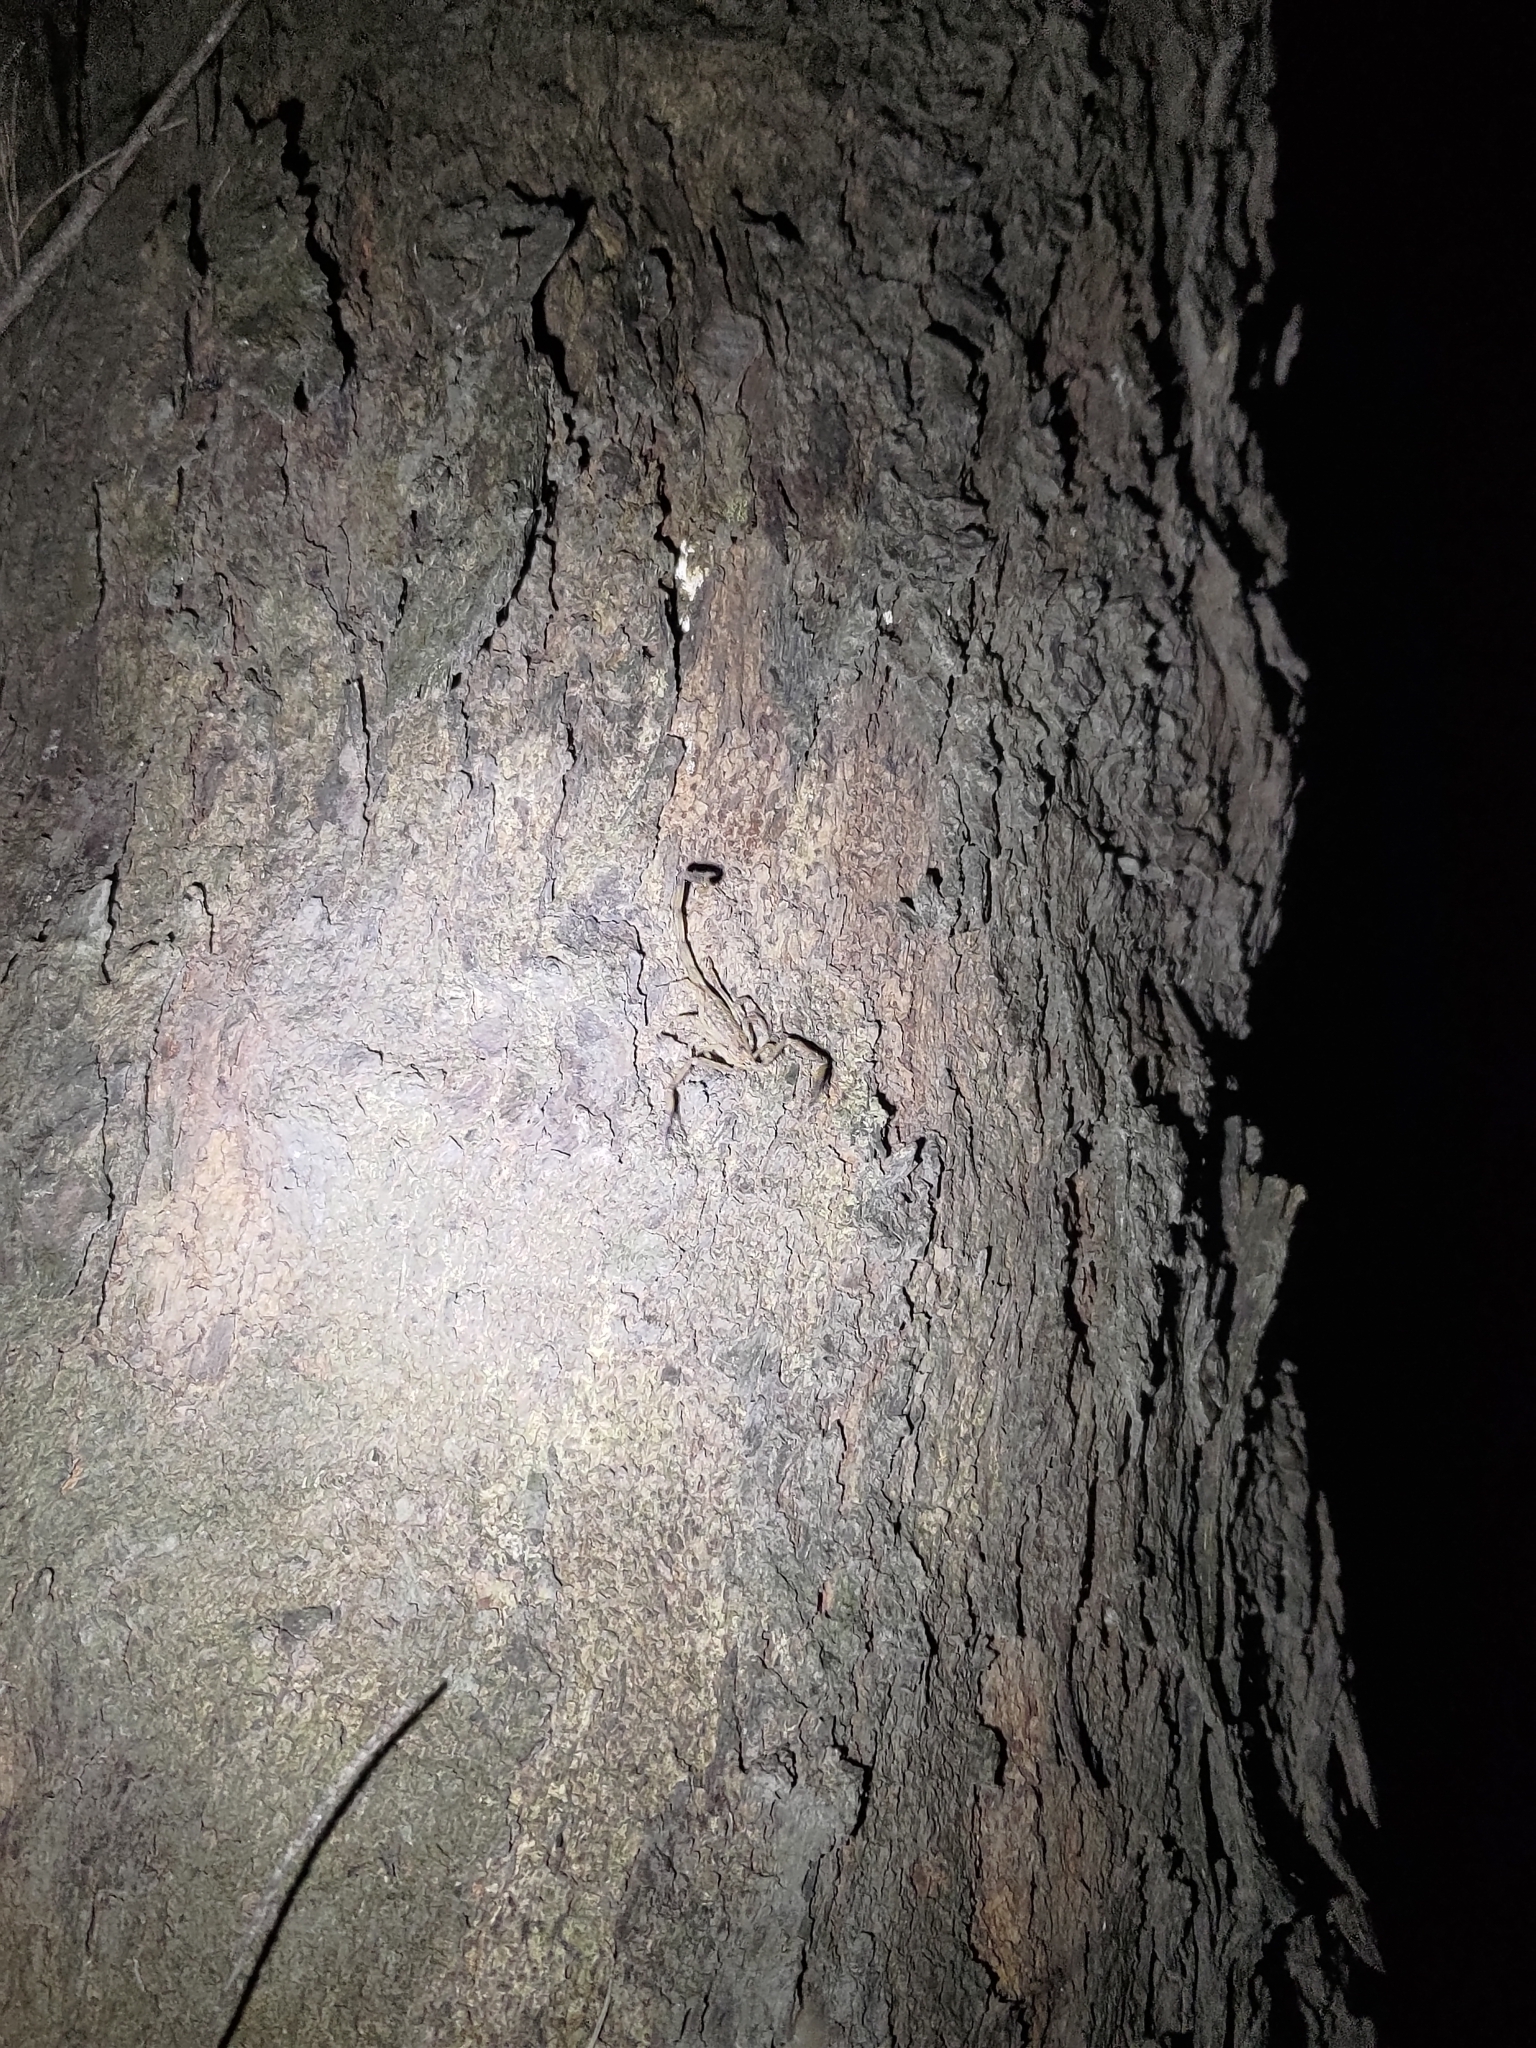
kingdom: Animalia
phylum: Arthropoda
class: Arachnida
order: Scorpiones
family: Buthidae
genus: Isometrus
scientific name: Isometrus maculatus
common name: Scorpions
